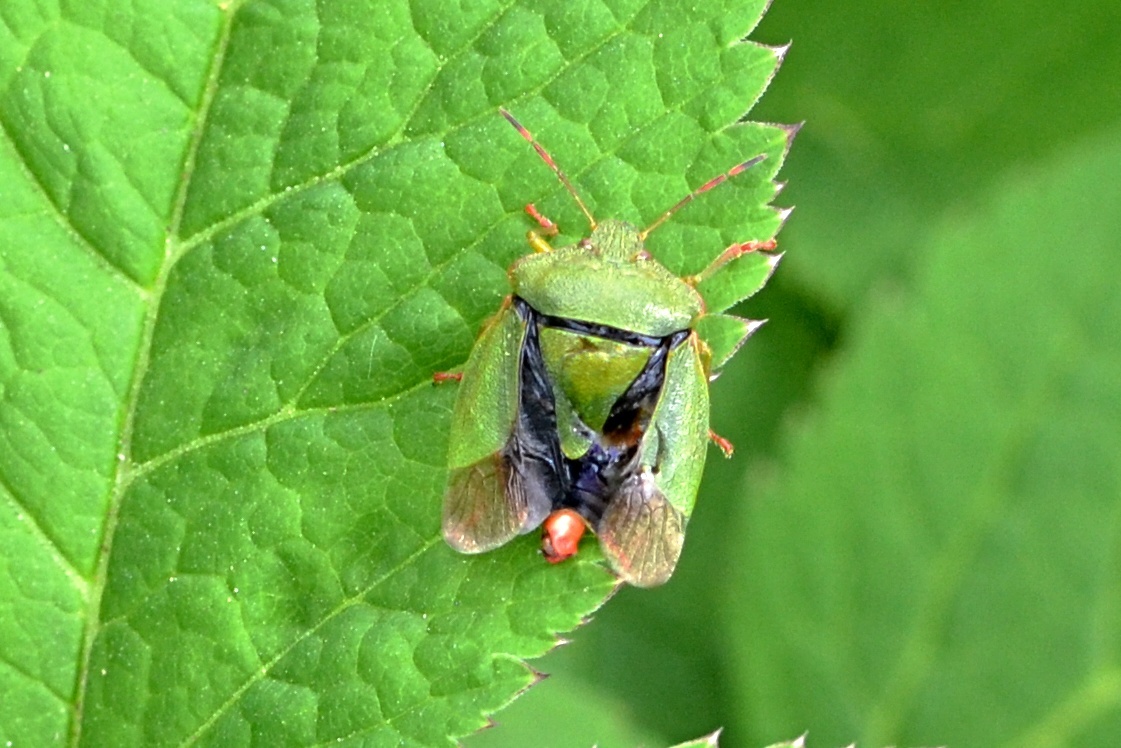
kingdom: Animalia
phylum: Arthropoda
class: Insecta
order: Hemiptera
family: Pentatomidae
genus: Palomena
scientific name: Palomena prasina
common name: Green shieldbug
